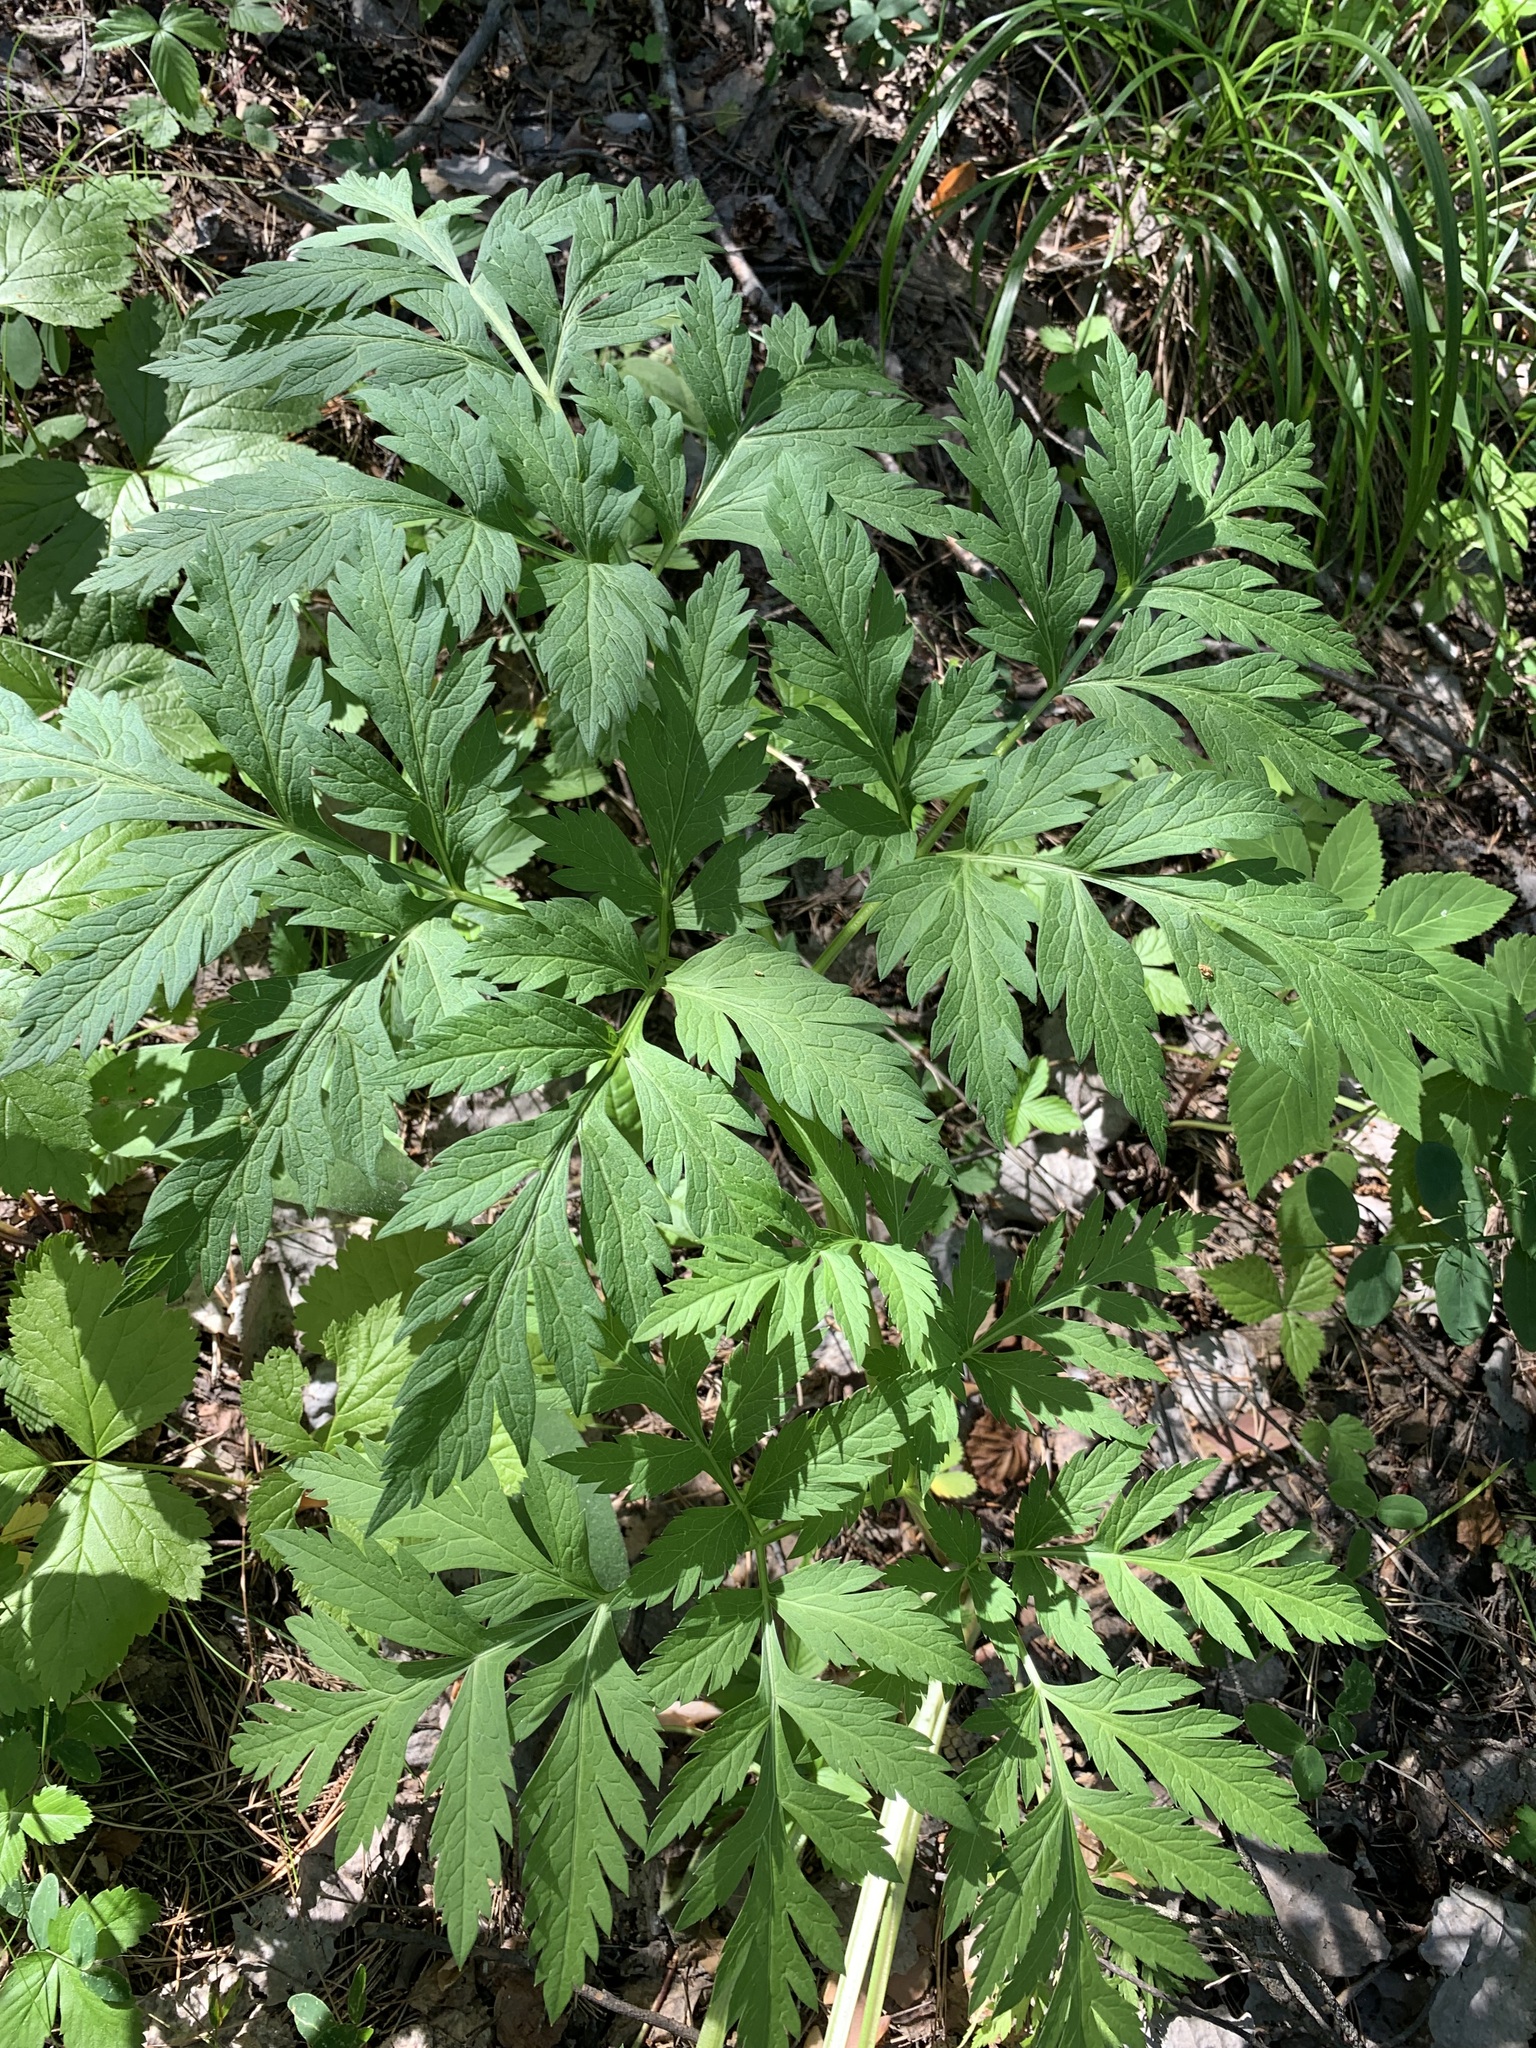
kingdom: Plantae
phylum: Tracheophyta
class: Magnoliopsida
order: Apiales
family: Apiaceae
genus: Pleurospermum
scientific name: Pleurospermum uralense
